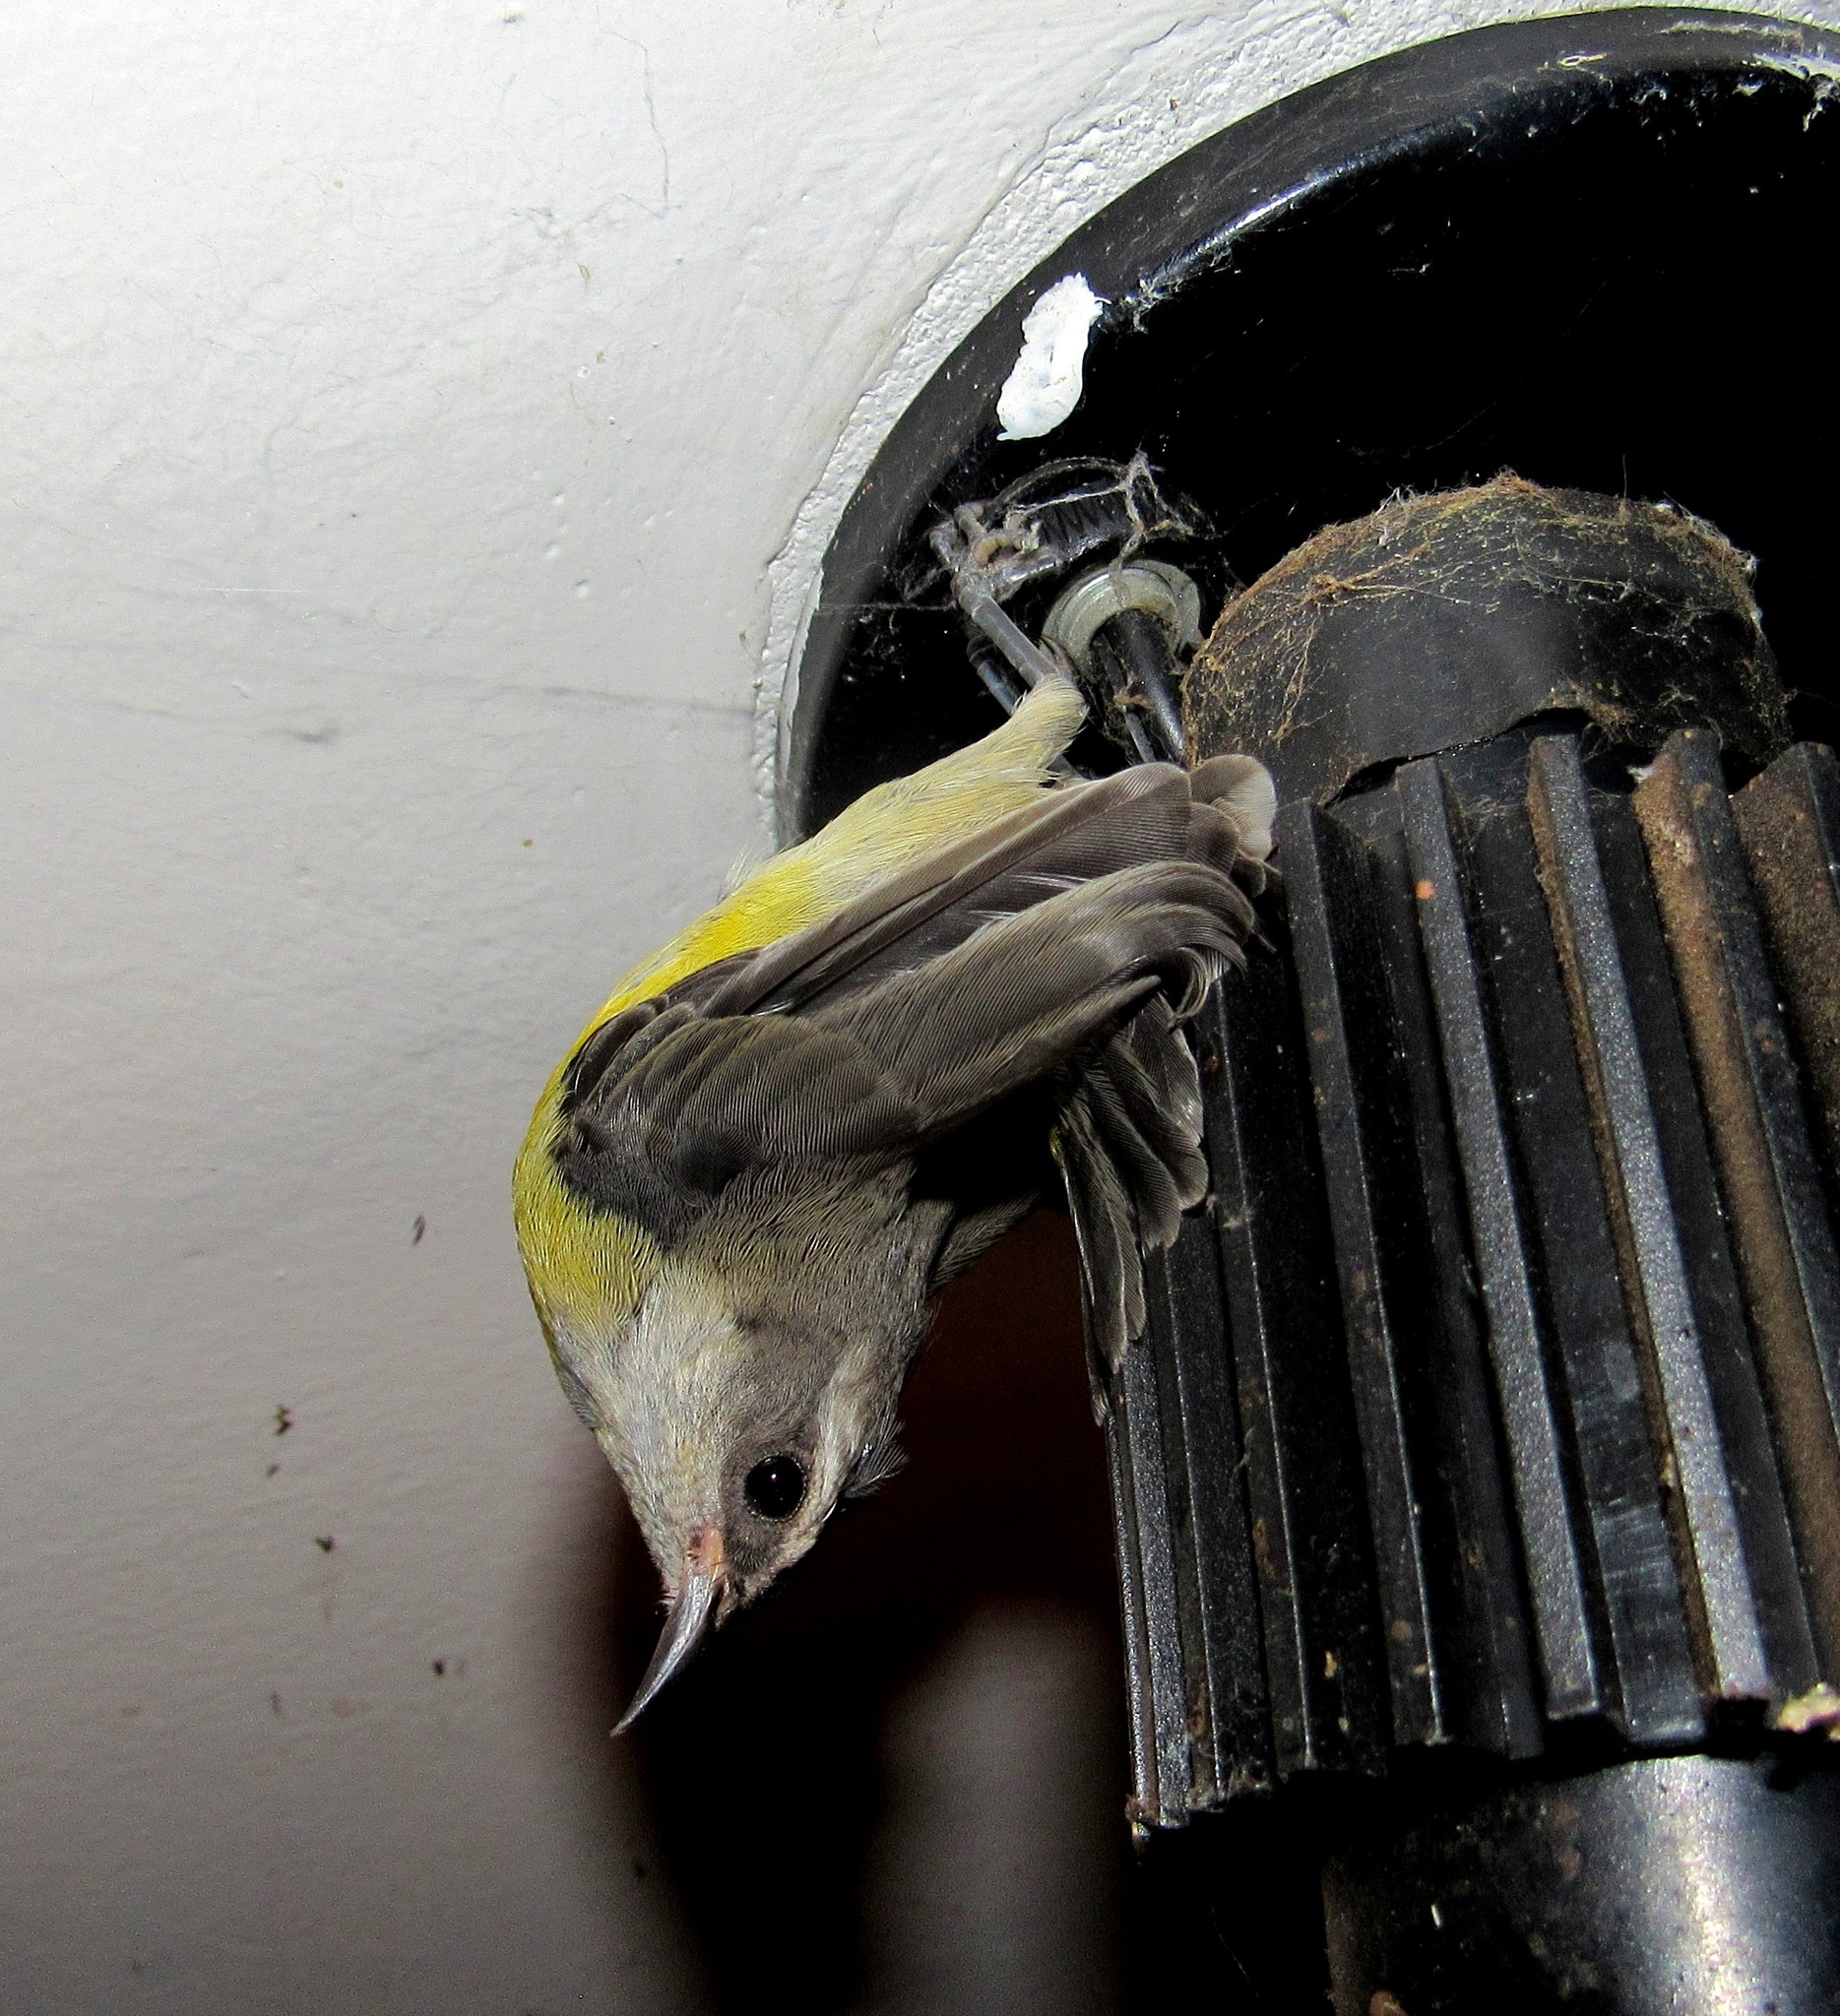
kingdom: Animalia
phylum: Chordata
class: Aves
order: Passeriformes
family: Thraupidae
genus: Coereba
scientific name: Coereba flaveola
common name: Bananaquit
